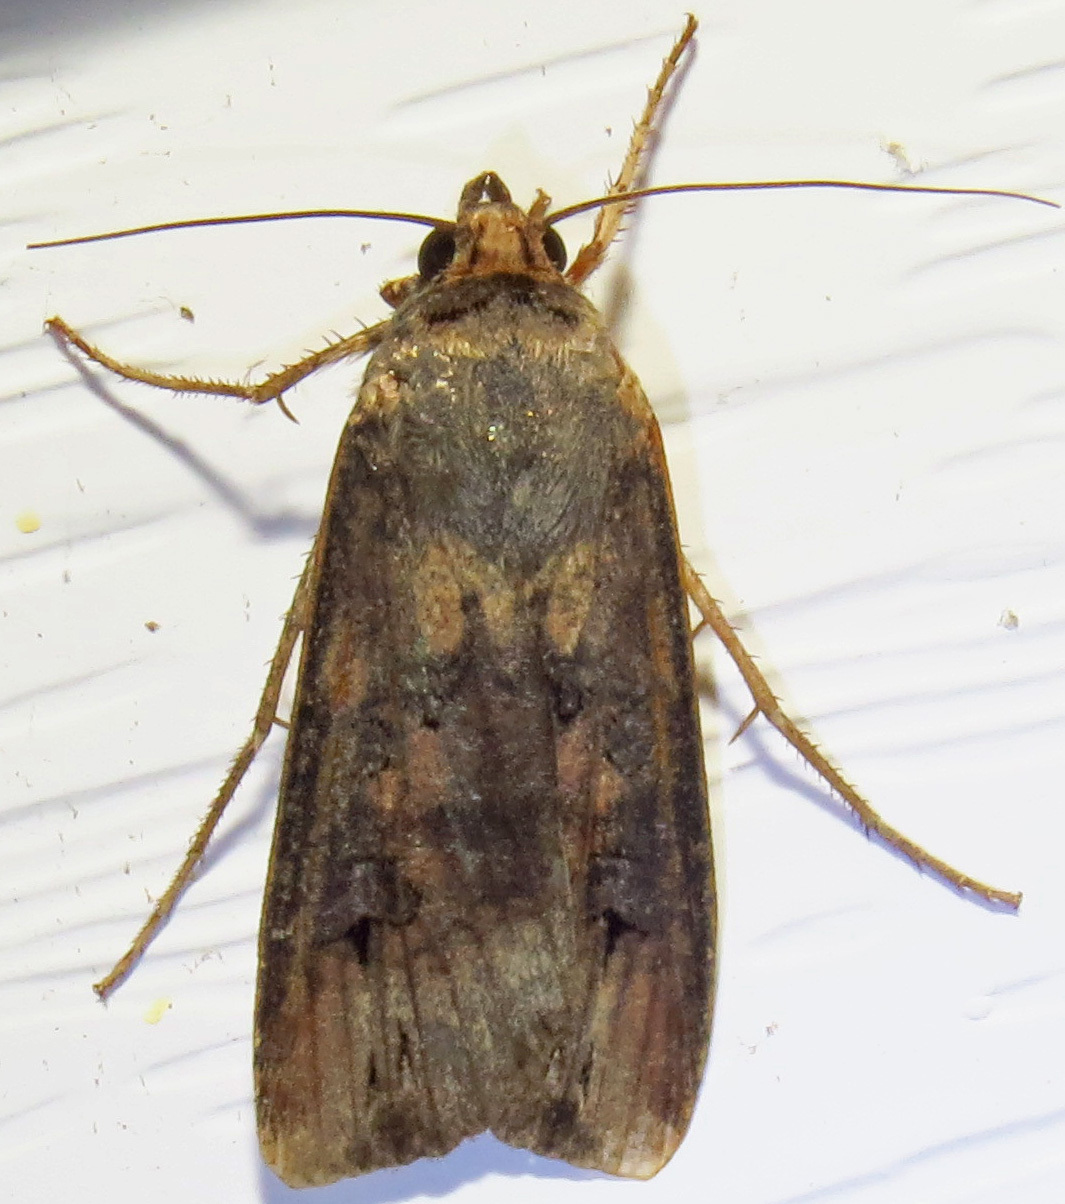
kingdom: Animalia
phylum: Arthropoda
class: Insecta
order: Lepidoptera
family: Noctuidae
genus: Agrotis
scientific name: Agrotis ipsilon
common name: Dark sword-grass
